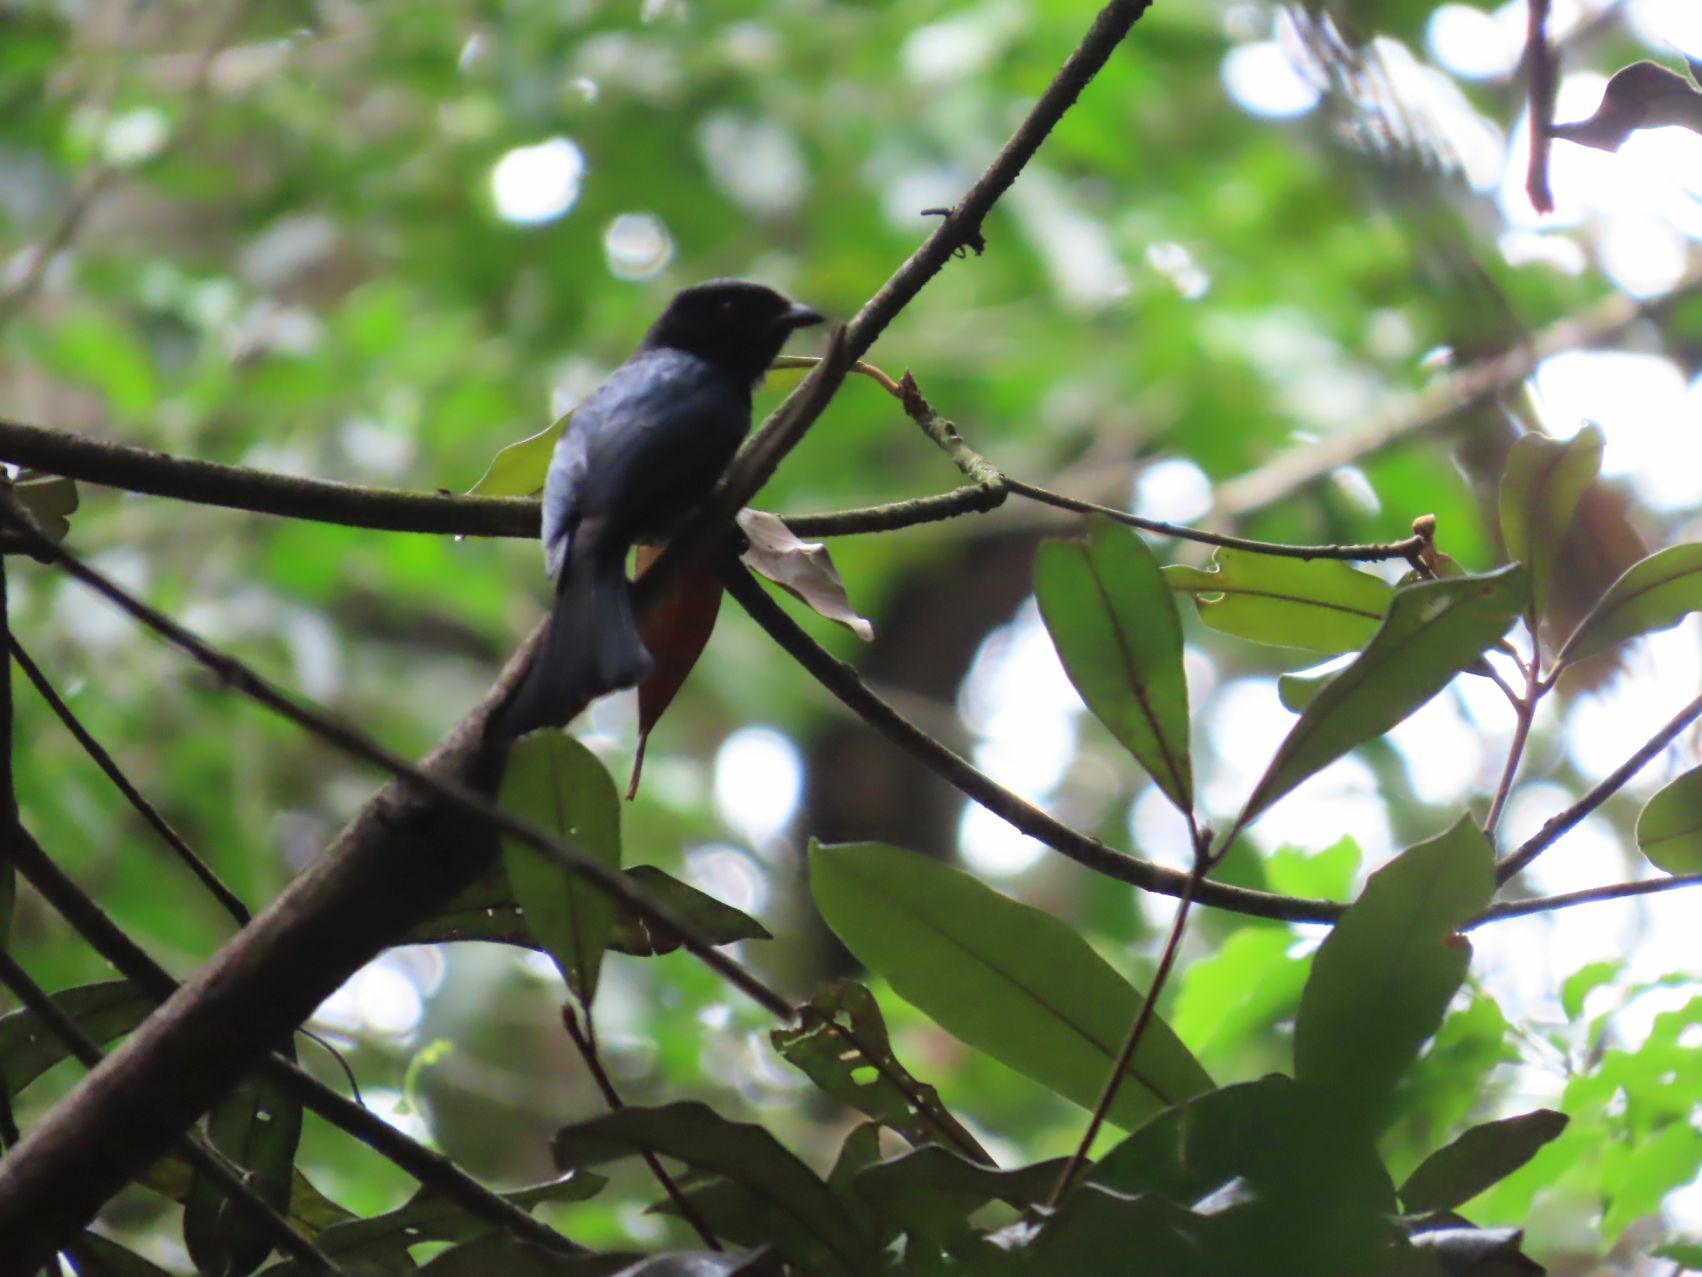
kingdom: Animalia
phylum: Chordata
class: Aves
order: Passeriformes
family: Dicruridae
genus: Dicrurus
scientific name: Dicrurus ludwigii
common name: Square-tailed drongo
